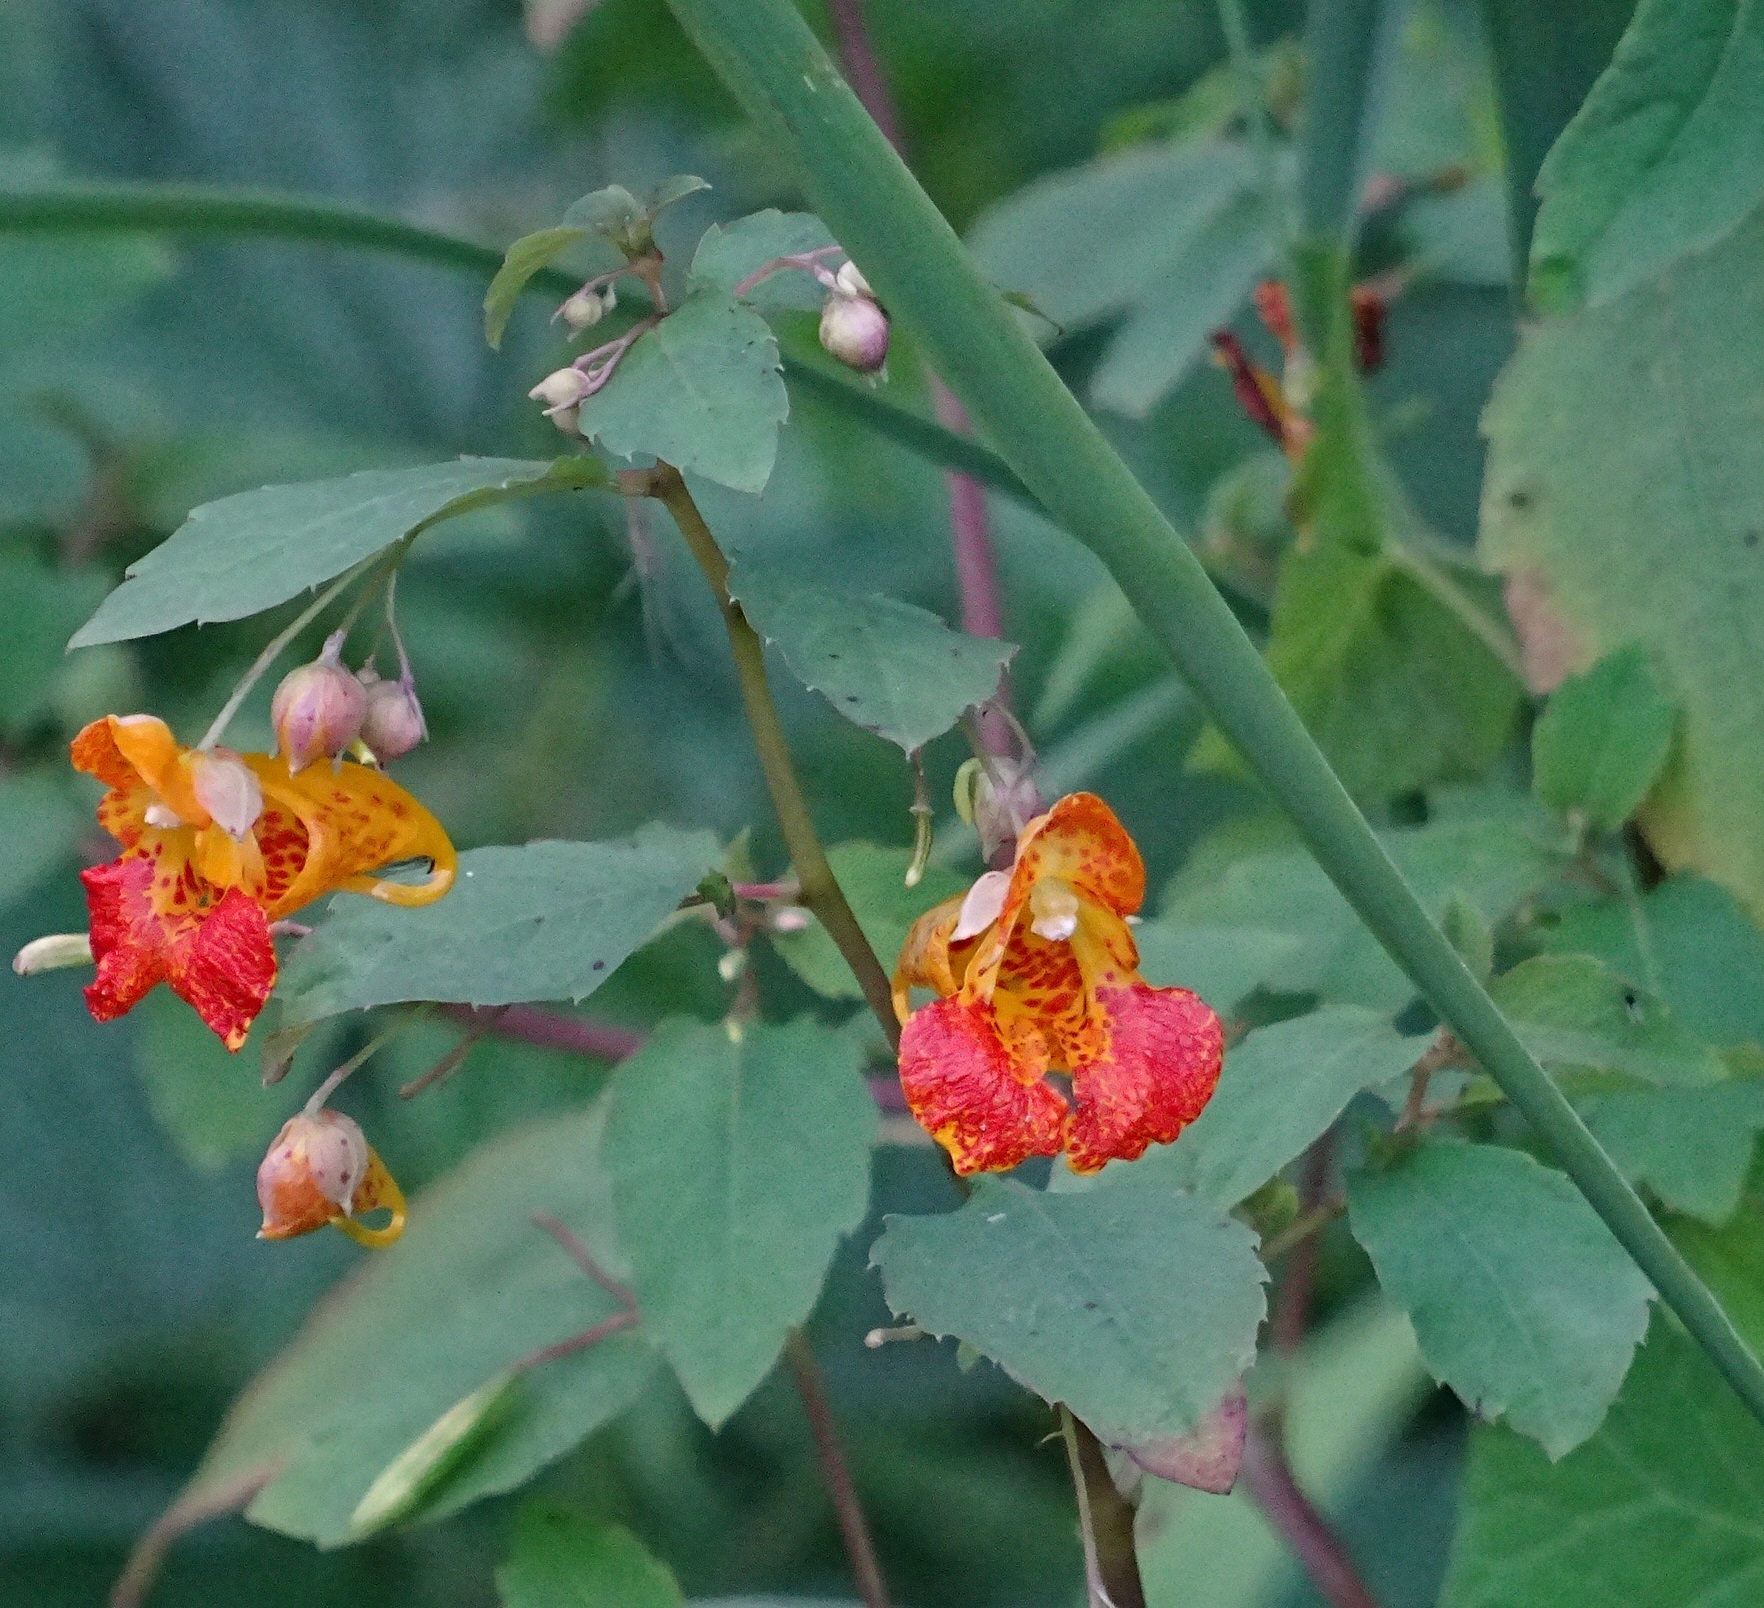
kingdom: Plantae
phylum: Tracheophyta
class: Magnoliopsida
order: Ericales
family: Balsaminaceae
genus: Impatiens
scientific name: Impatiens capensis
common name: Orange balsam
